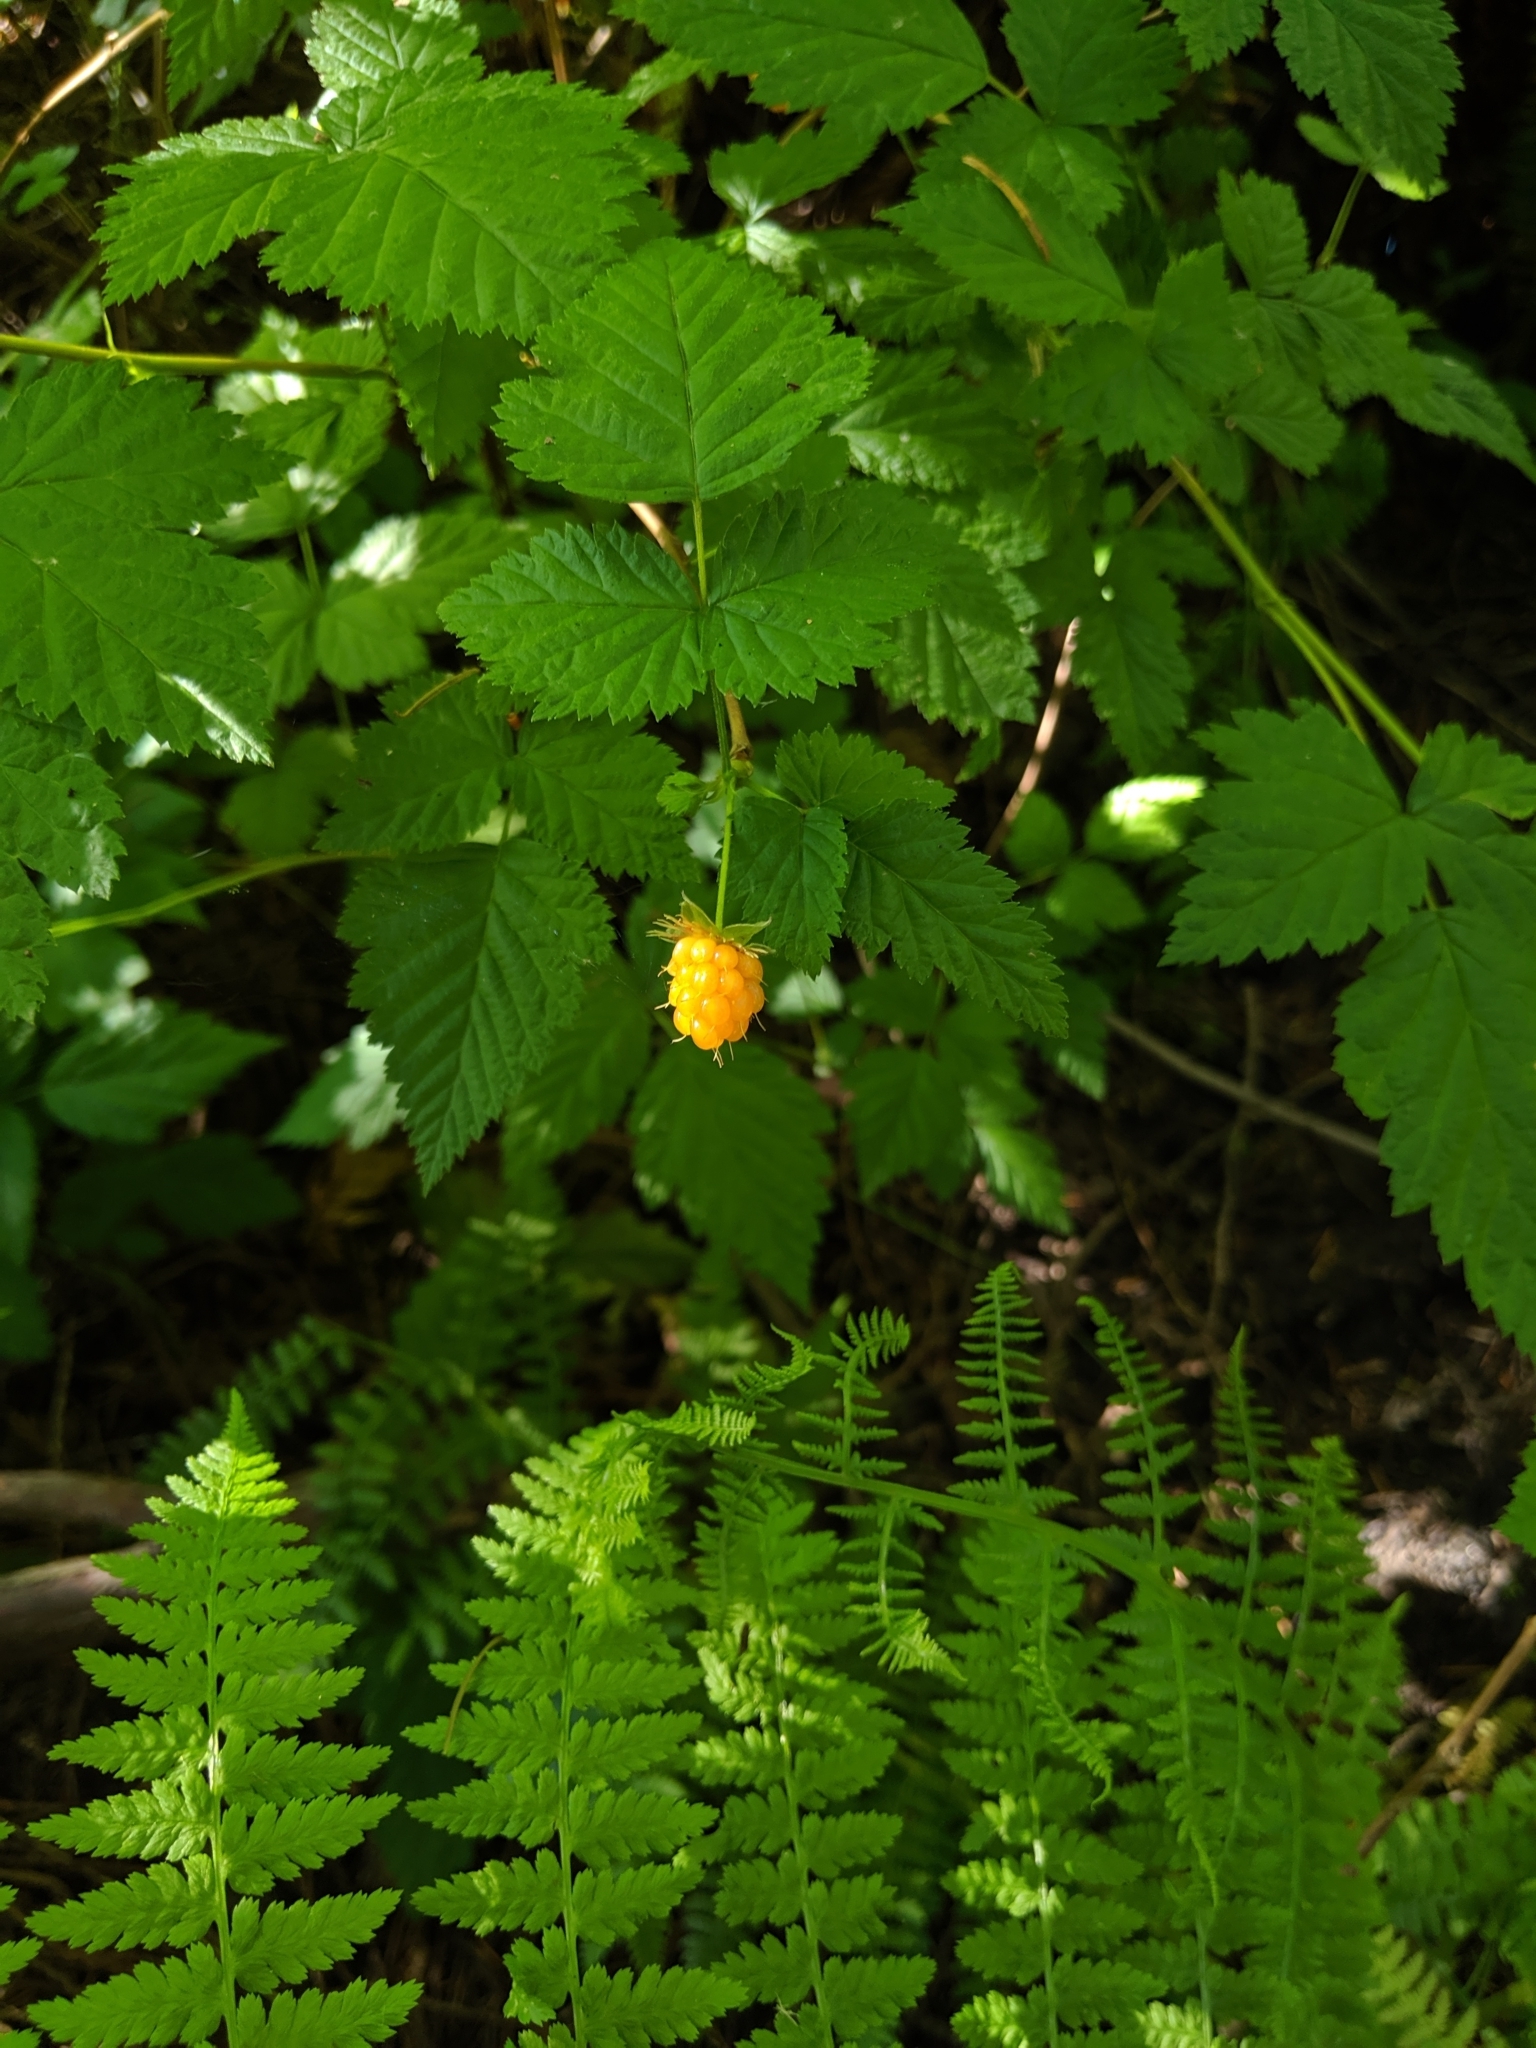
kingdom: Plantae
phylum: Tracheophyta
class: Magnoliopsida
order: Rosales
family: Rosaceae
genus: Rubus
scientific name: Rubus spectabilis
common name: Salmonberry
